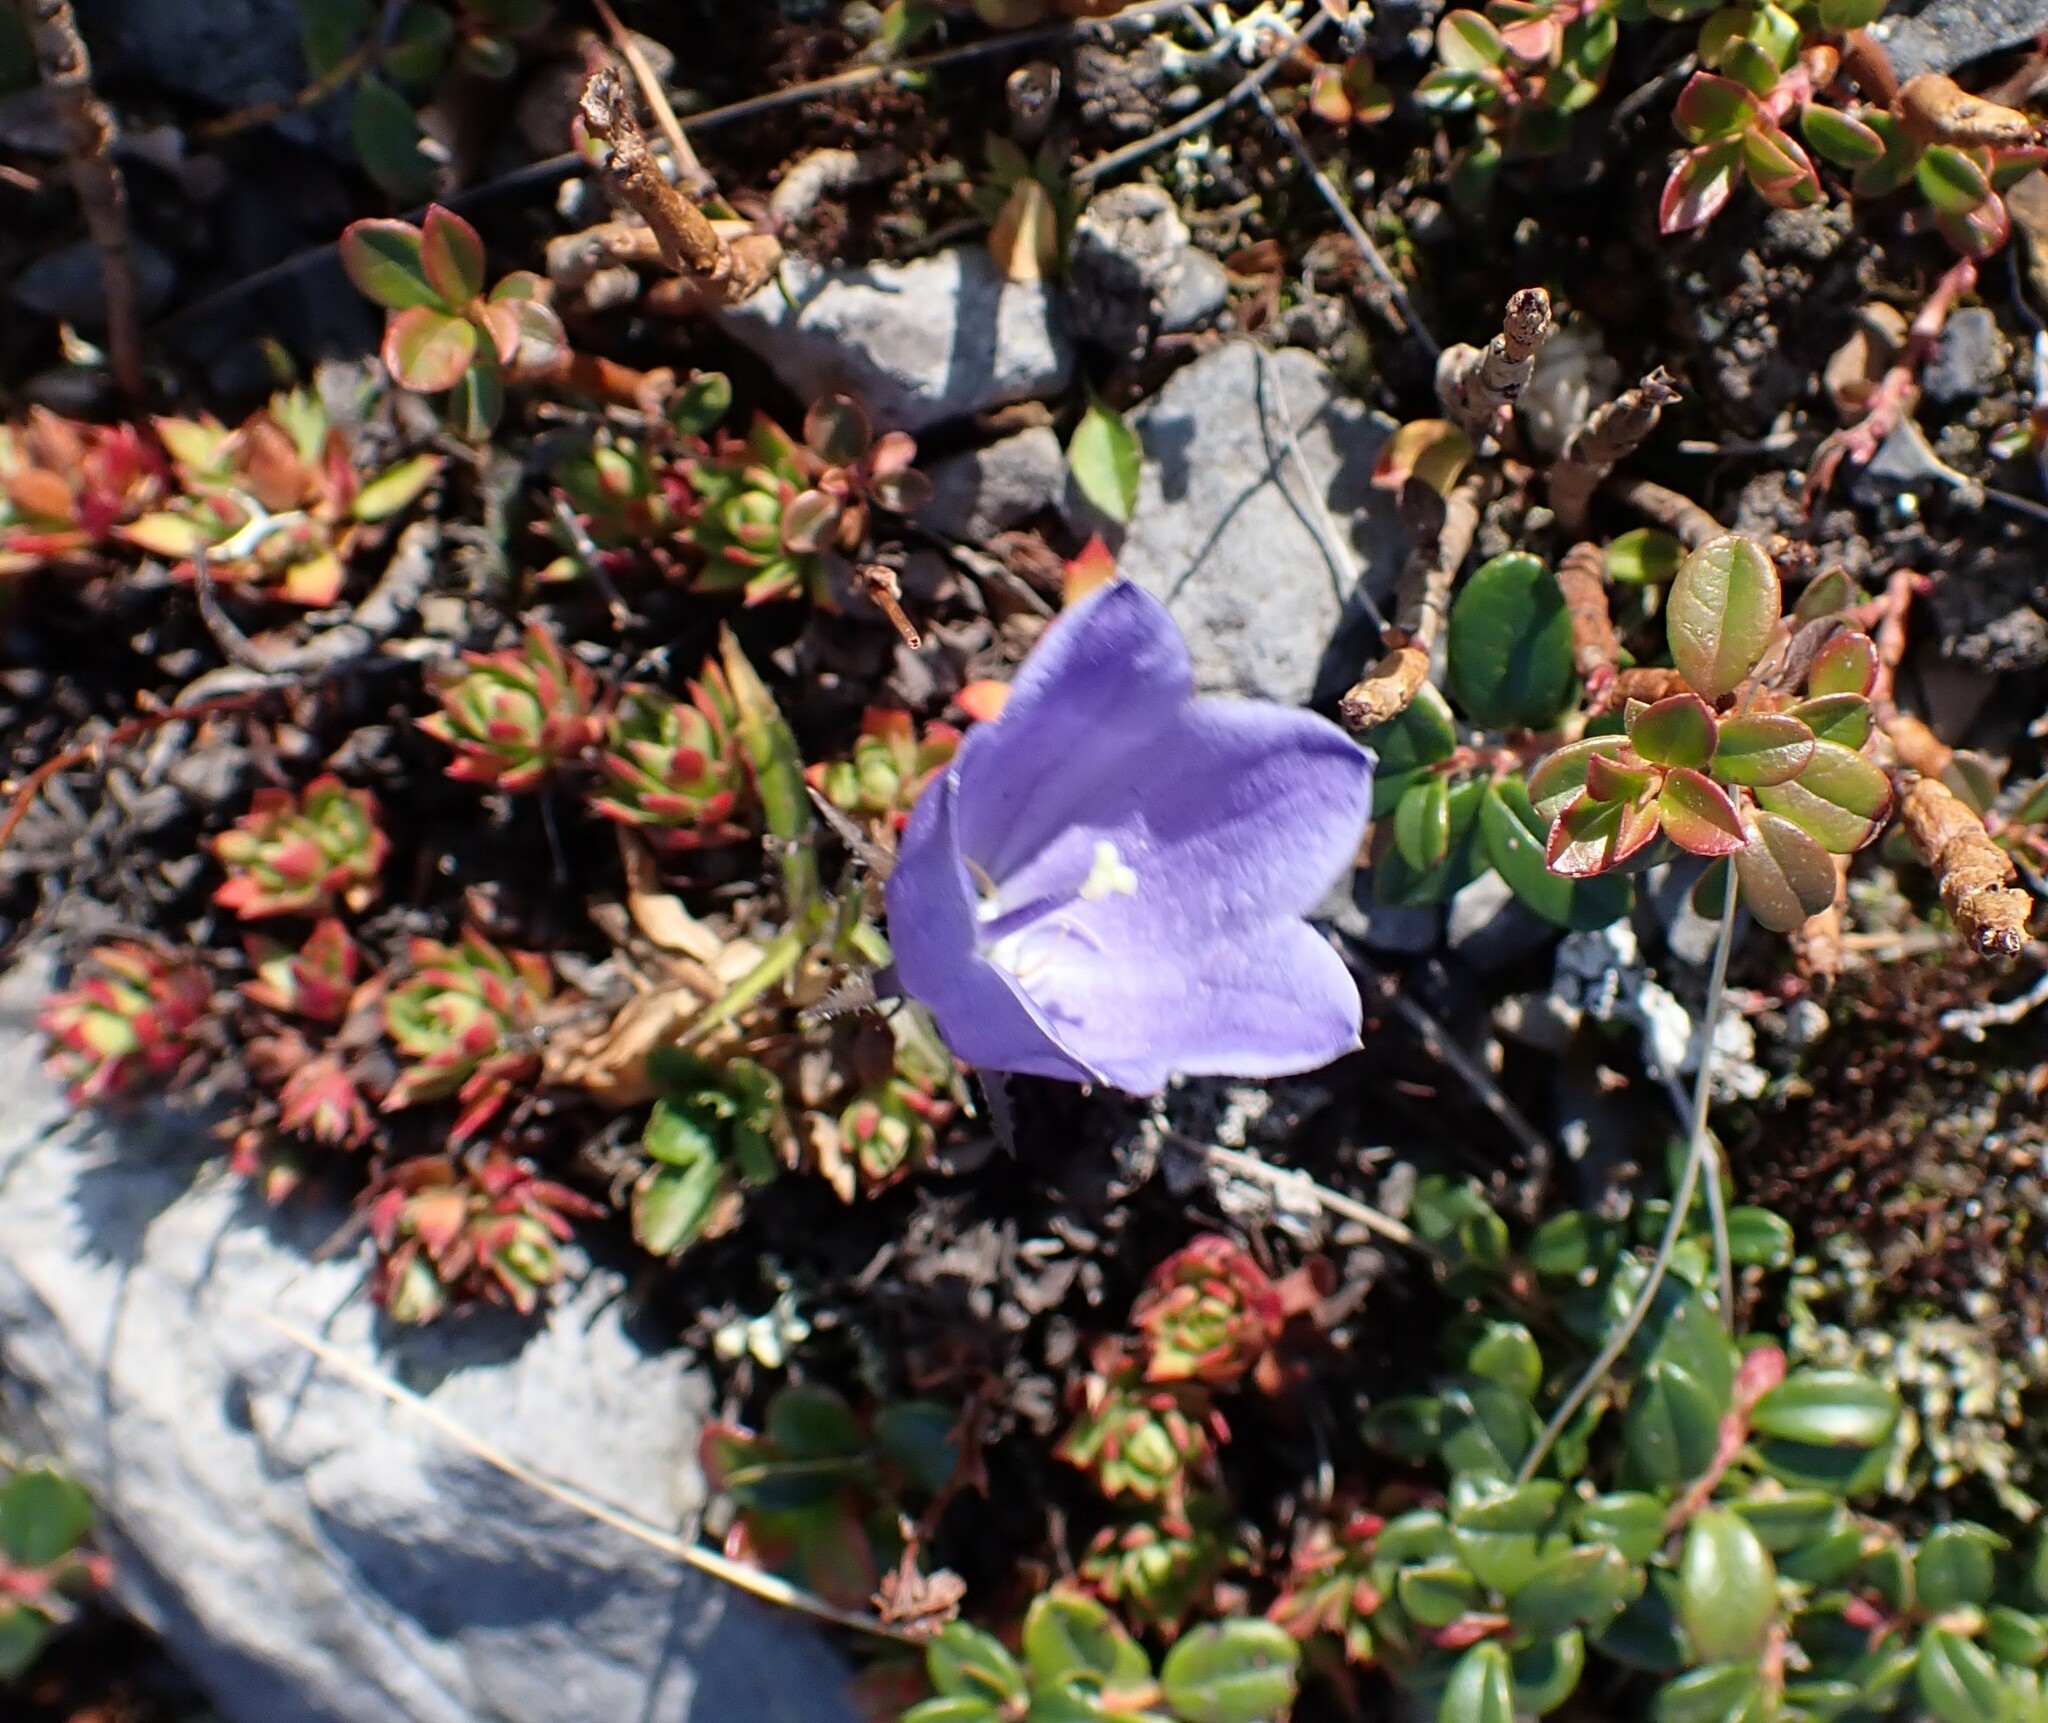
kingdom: Plantae
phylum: Tracheophyta
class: Magnoliopsida
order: Asterales
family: Campanulaceae
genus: Campanula
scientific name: Campanula lasiocarpa
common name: Mountain harebell
